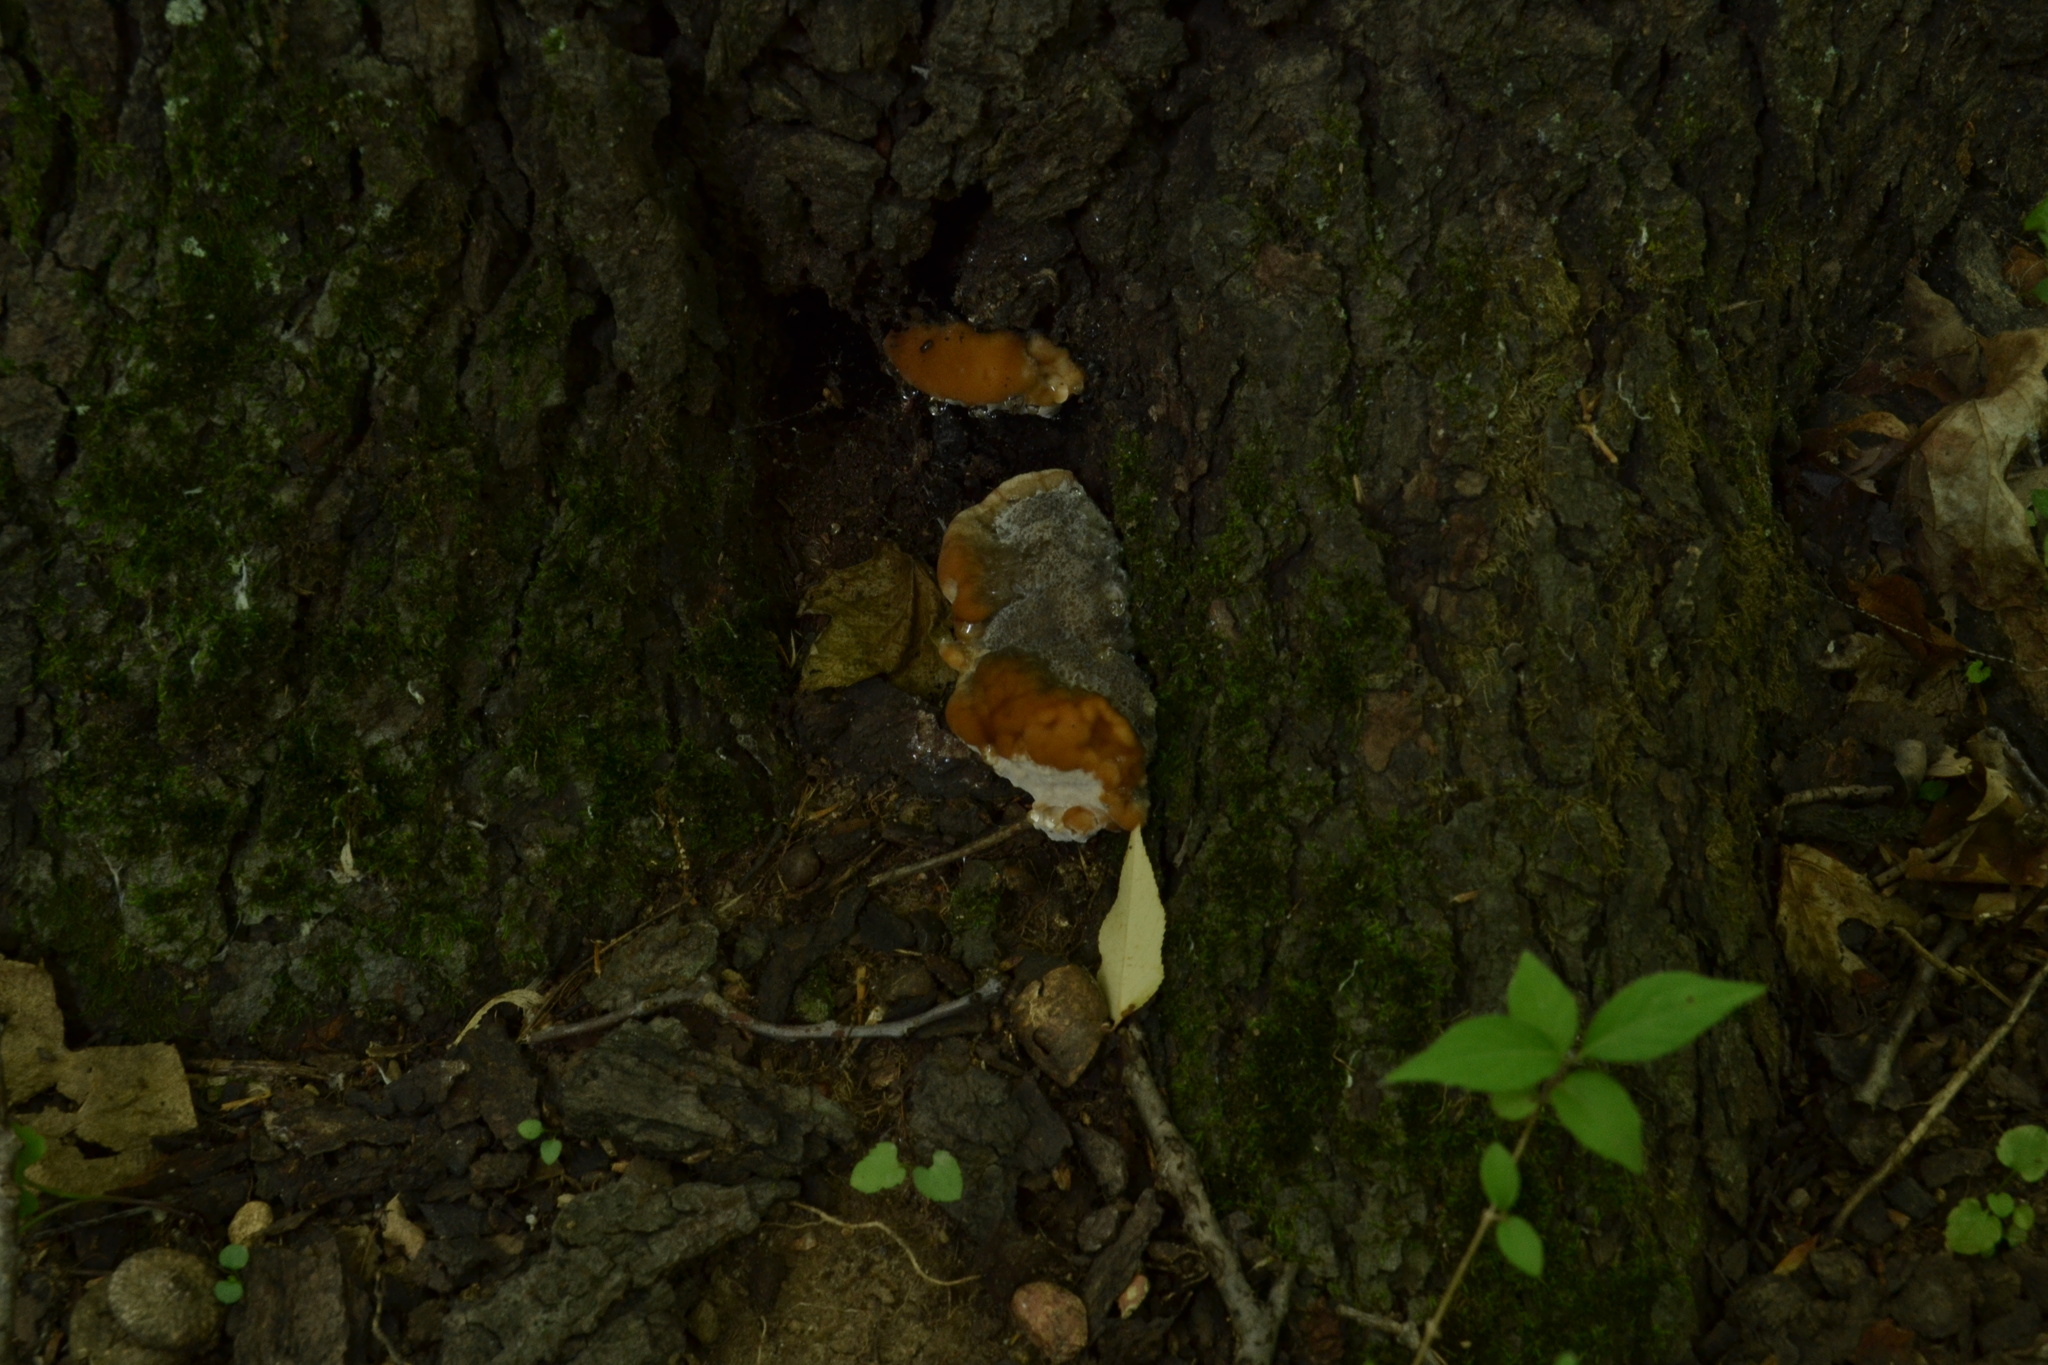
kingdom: Fungi
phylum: Basidiomycota
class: Agaricomycetes
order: Polyporales
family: Fomitopsidaceae
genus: Niveoporofomes
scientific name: Niveoporofomes spraguei
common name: Green cheese polypore
